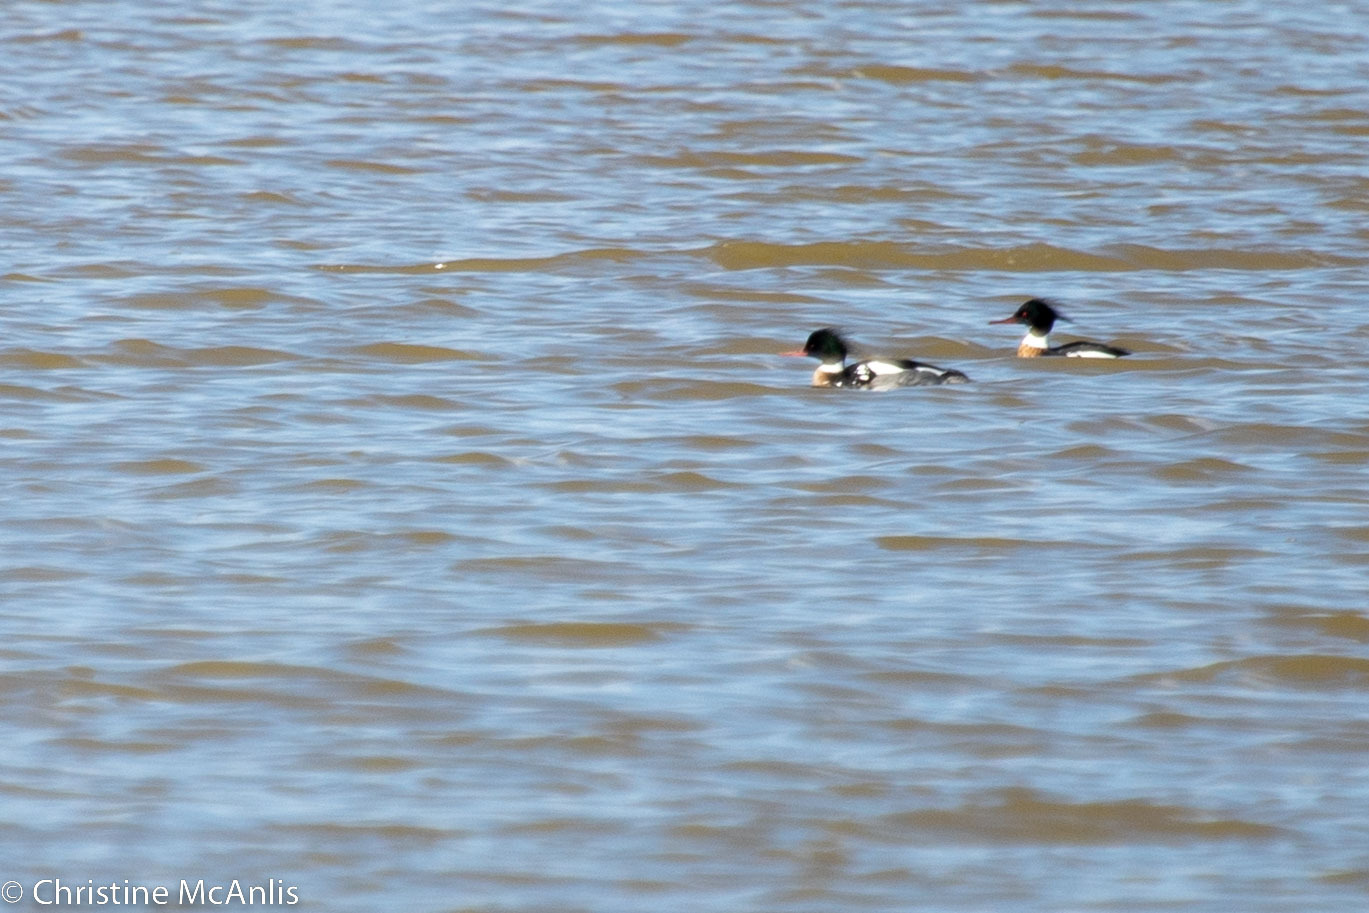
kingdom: Animalia
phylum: Chordata
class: Aves
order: Anseriformes
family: Anatidae
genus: Mergus
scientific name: Mergus serrator
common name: Red-breasted merganser
